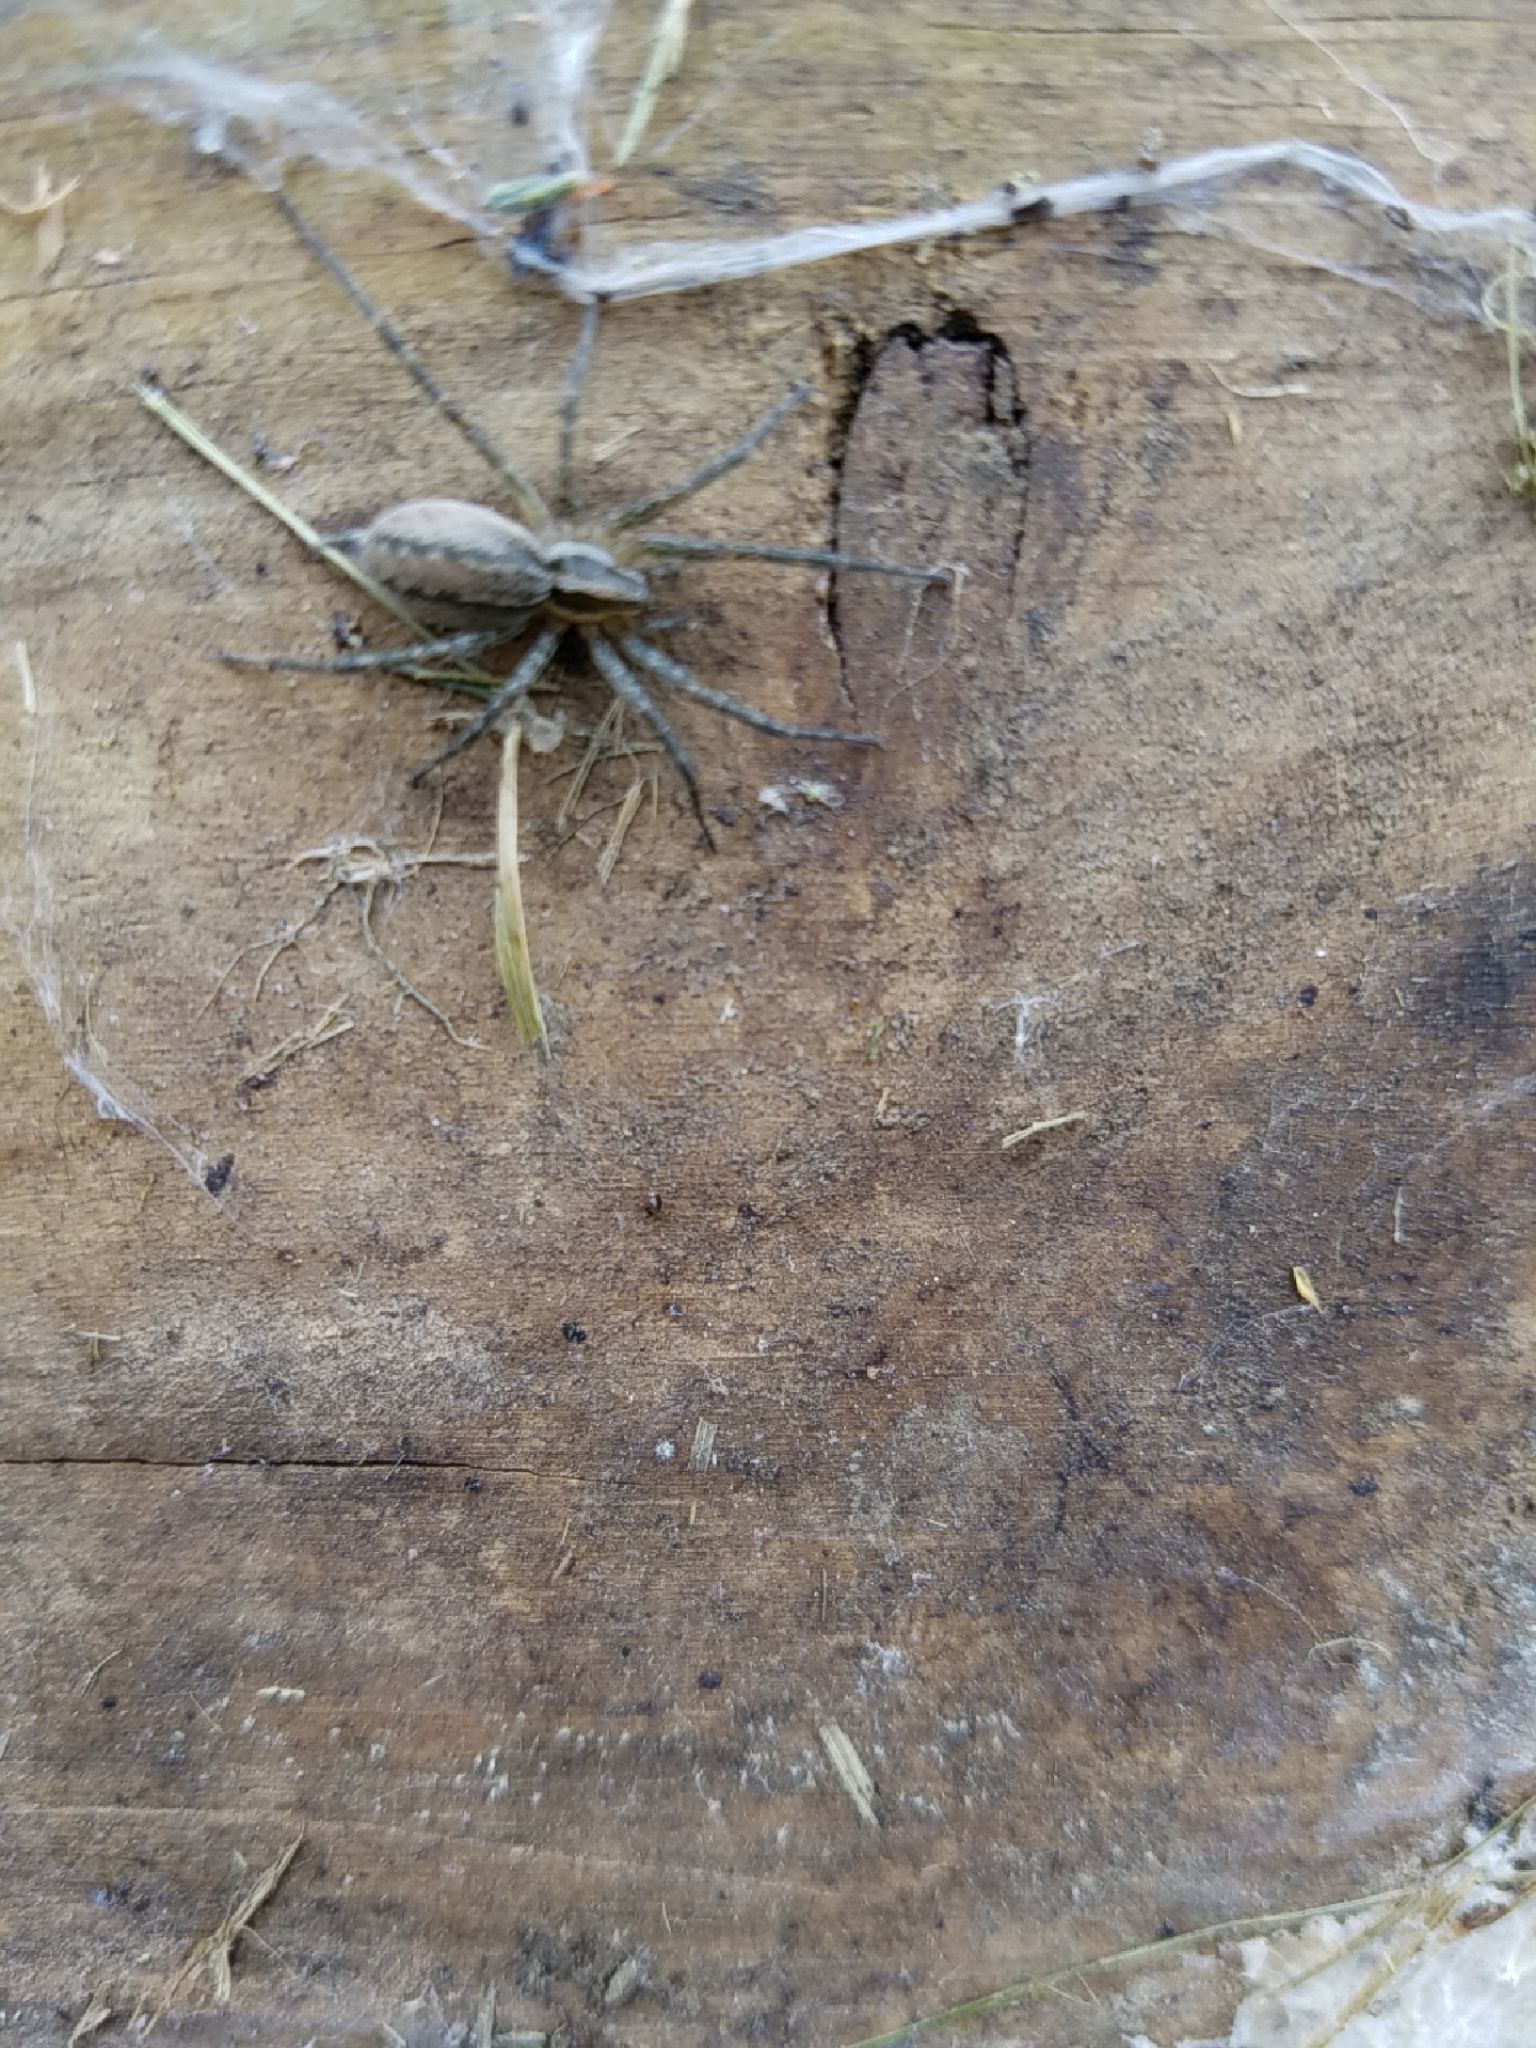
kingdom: Animalia
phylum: Arthropoda
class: Arachnida
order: Araneae
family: Agelenidae
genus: Agelenopsis
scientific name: Agelenopsis
